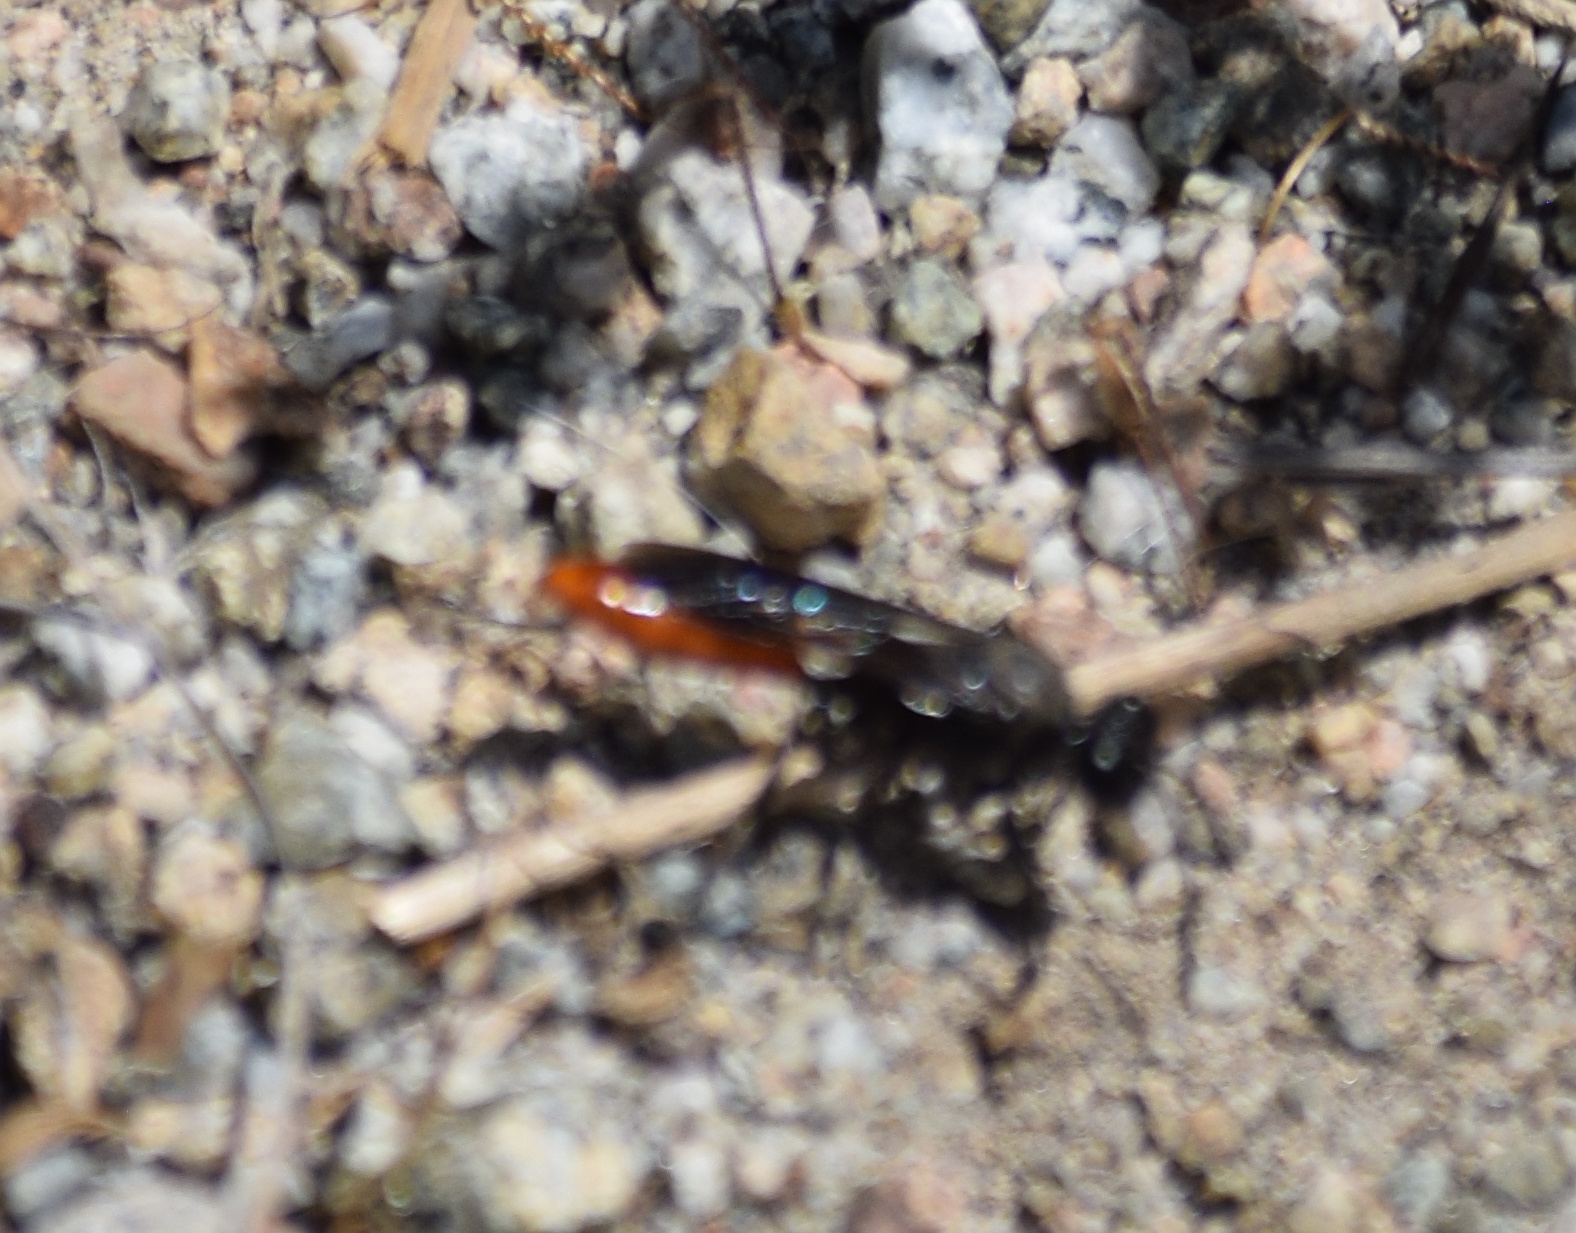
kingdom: Animalia
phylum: Arthropoda
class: Insecta
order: Hymenoptera
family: Sphecidae
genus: Sphex
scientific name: Sphex lucae
